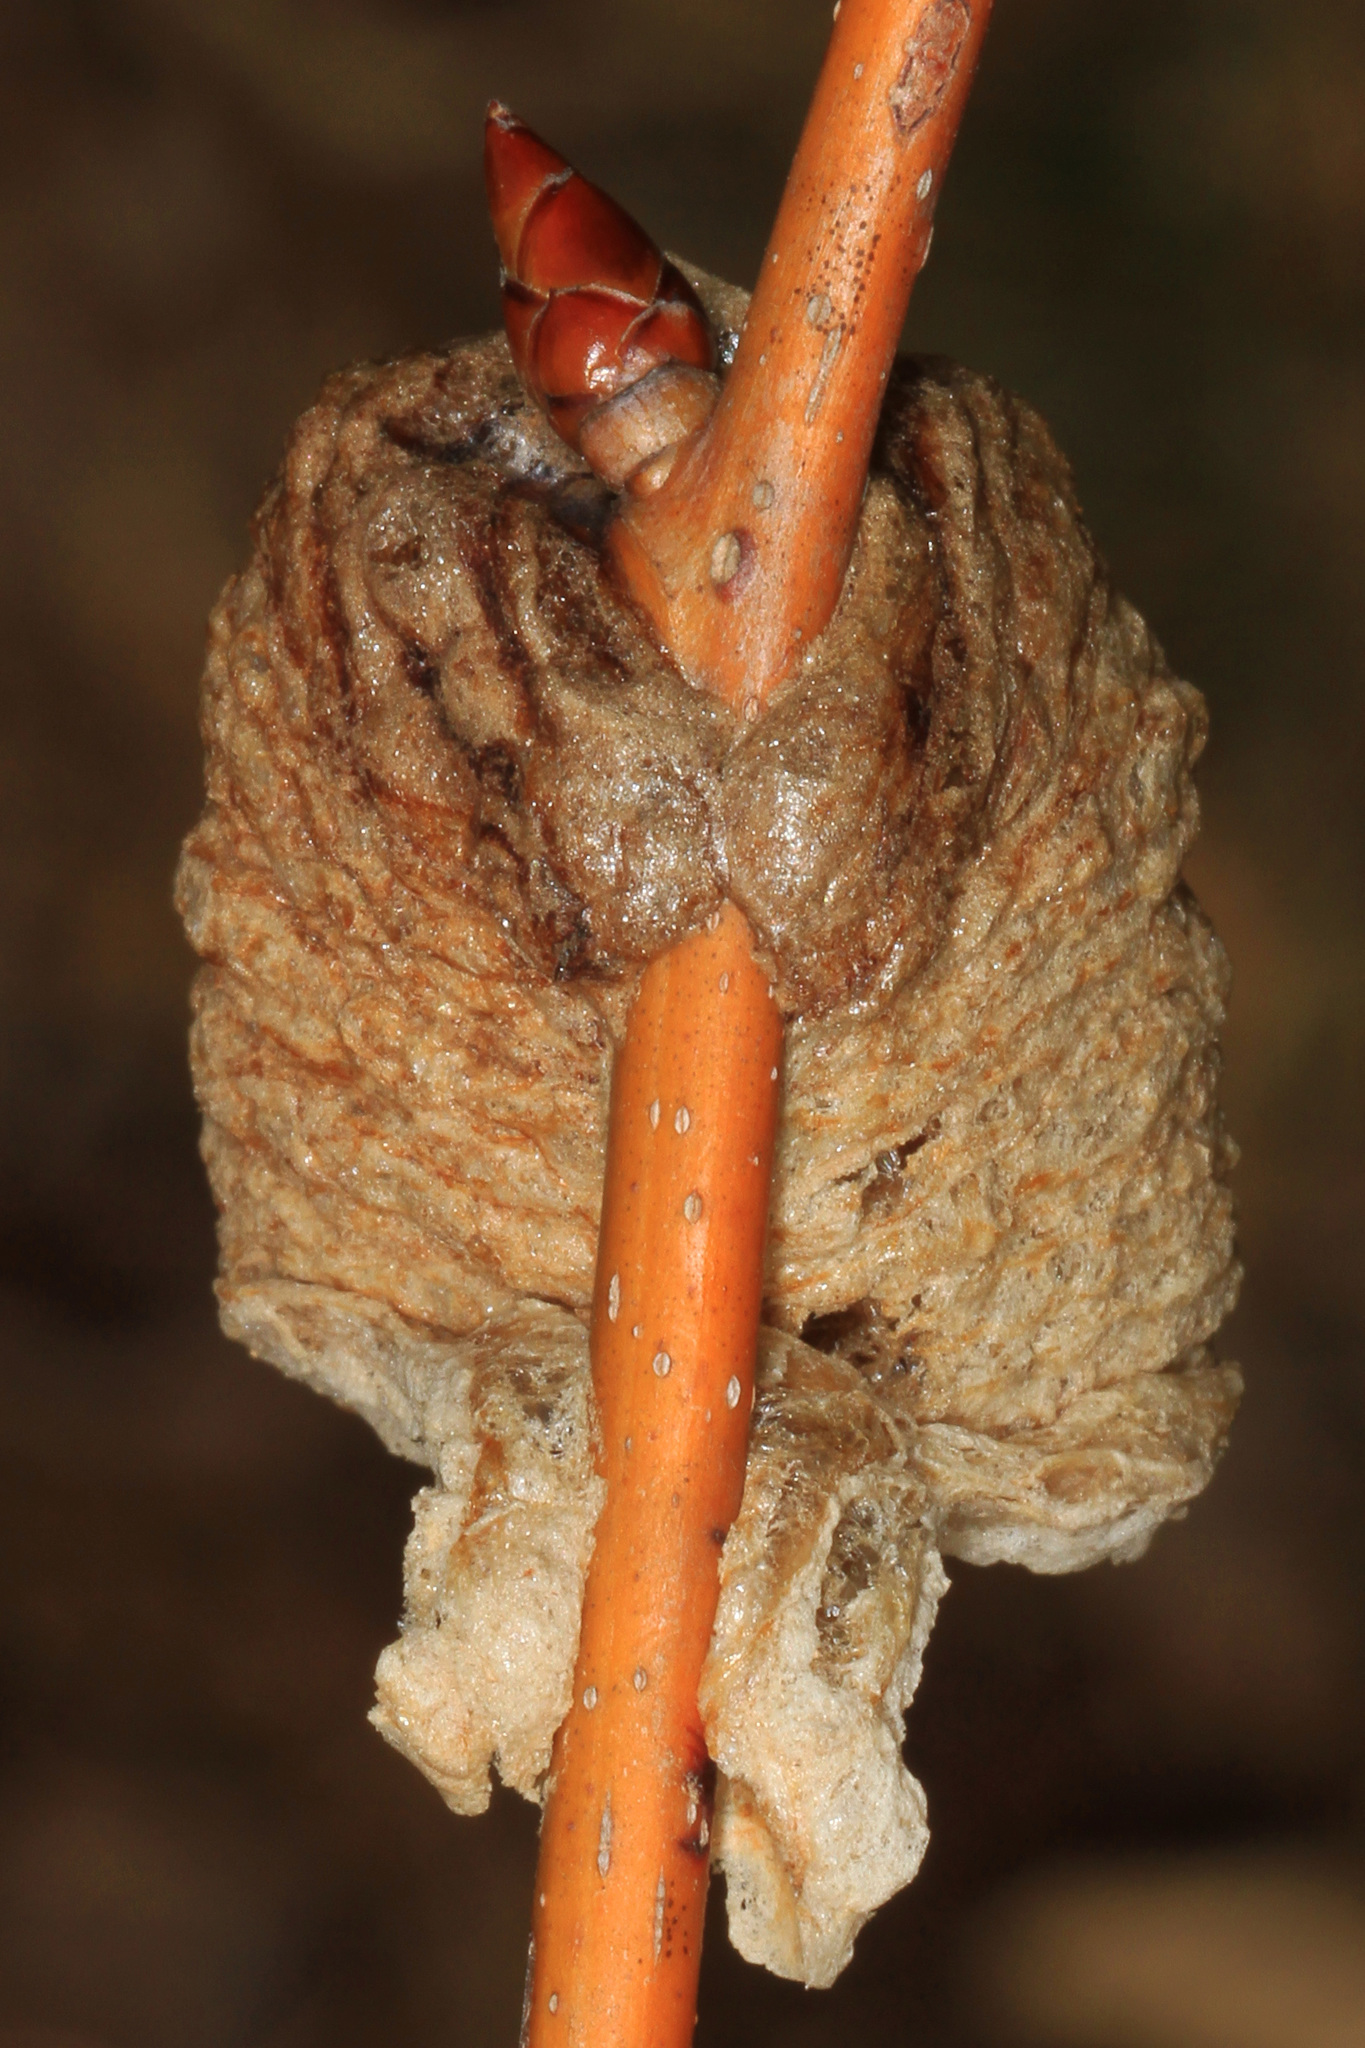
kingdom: Animalia
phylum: Arthropoda
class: Insecta
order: Mantodea
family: Mantidae
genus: Tenodera
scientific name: Tenodera sinensis
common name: Chinese mantis
